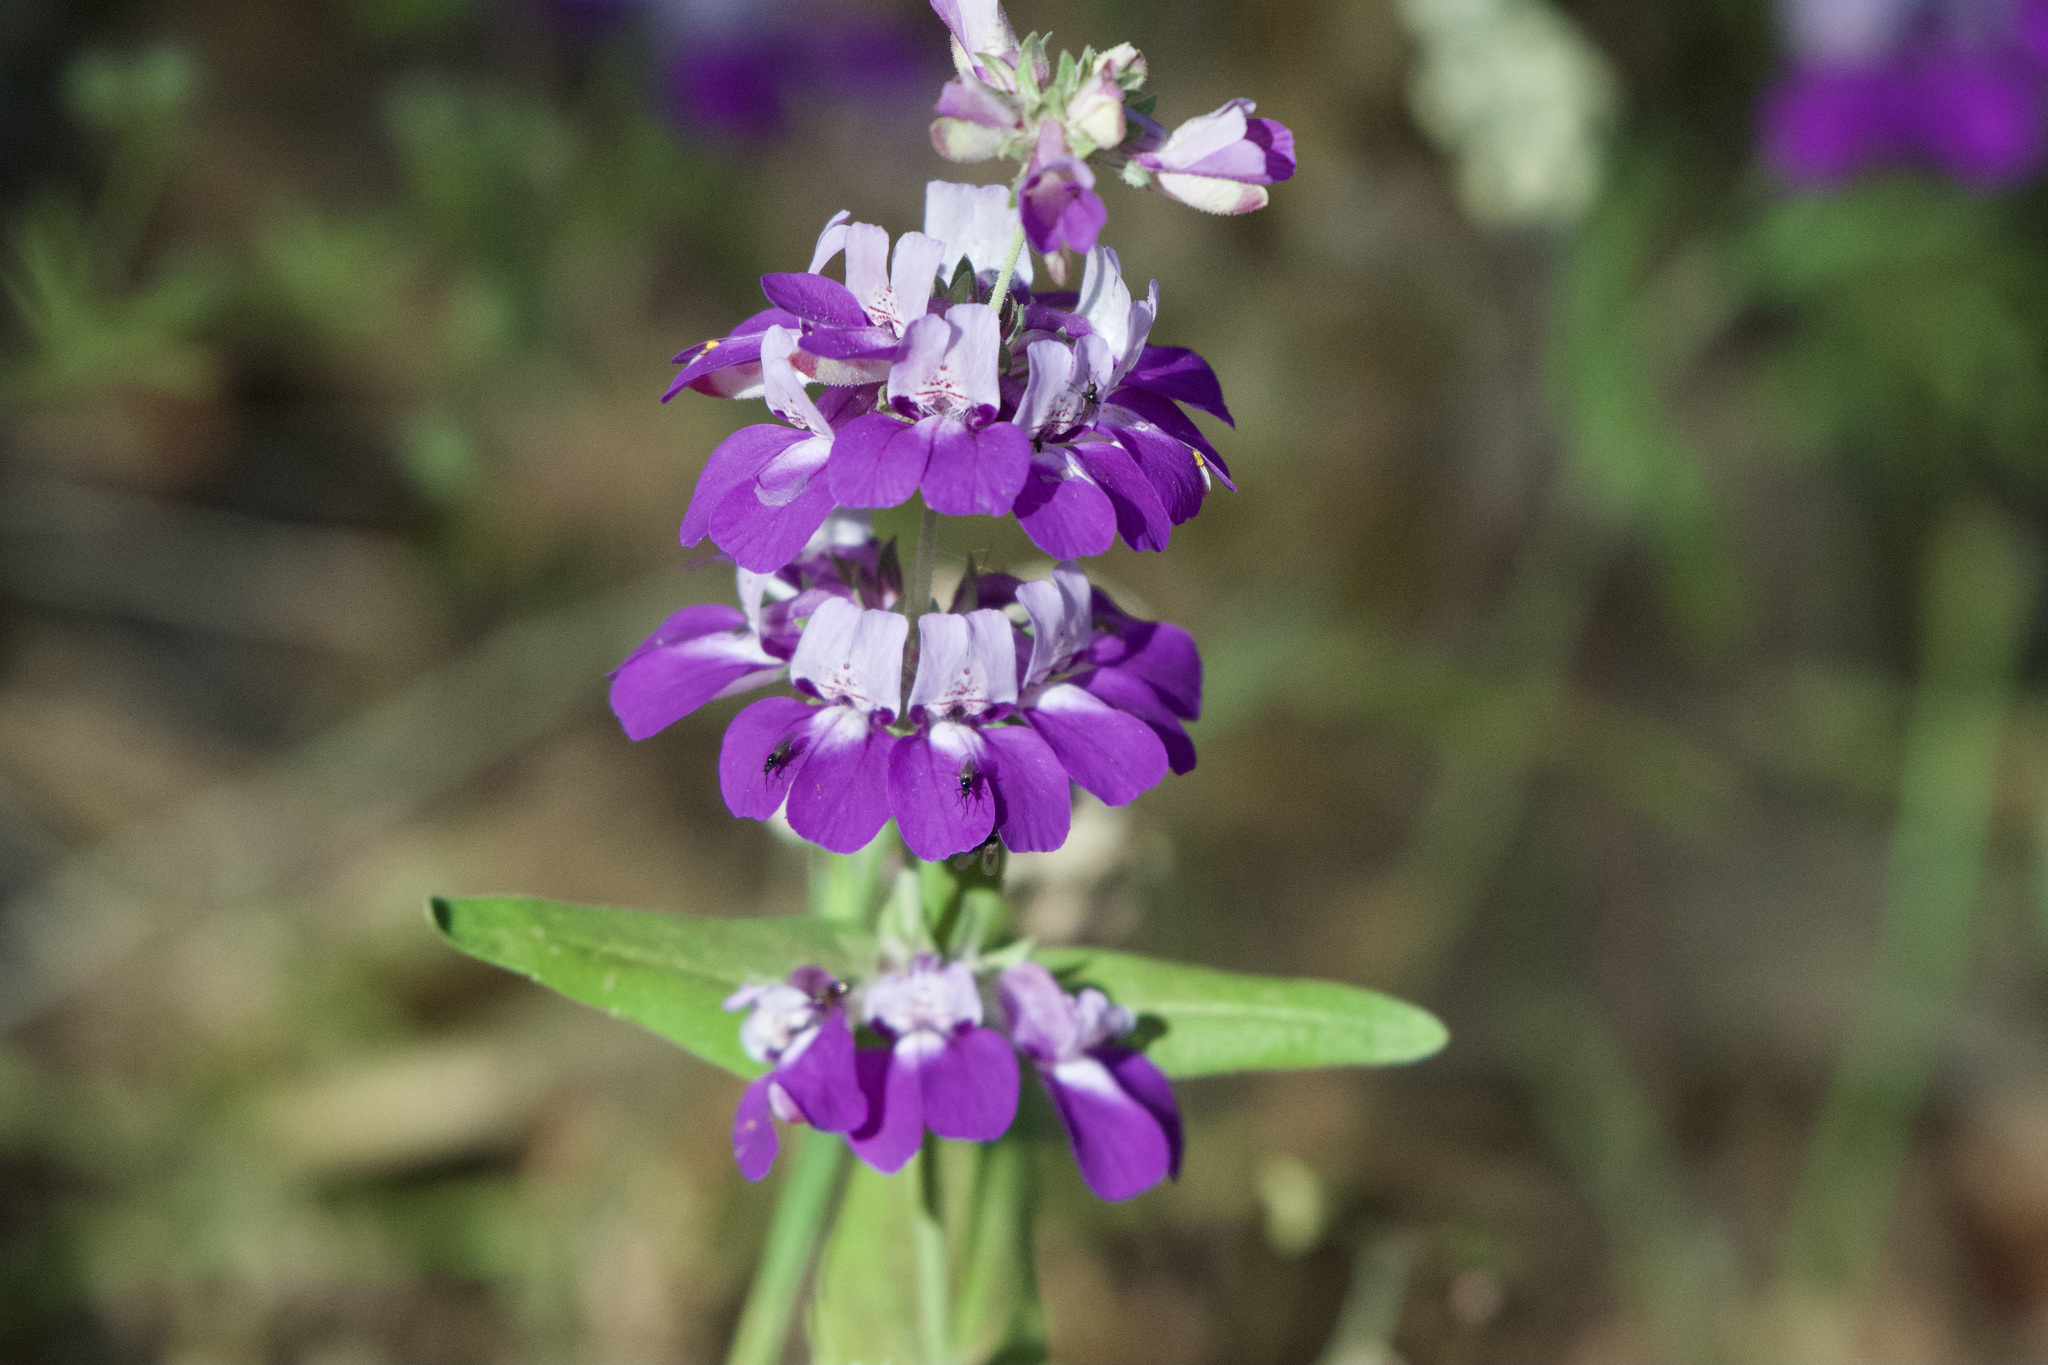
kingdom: Plantae
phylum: Tracheophyta
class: Magnoliopsida
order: Lamiales
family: Plantaginaceae
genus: Collinsia
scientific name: Collinsia heterophylla
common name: Chinese-houses
